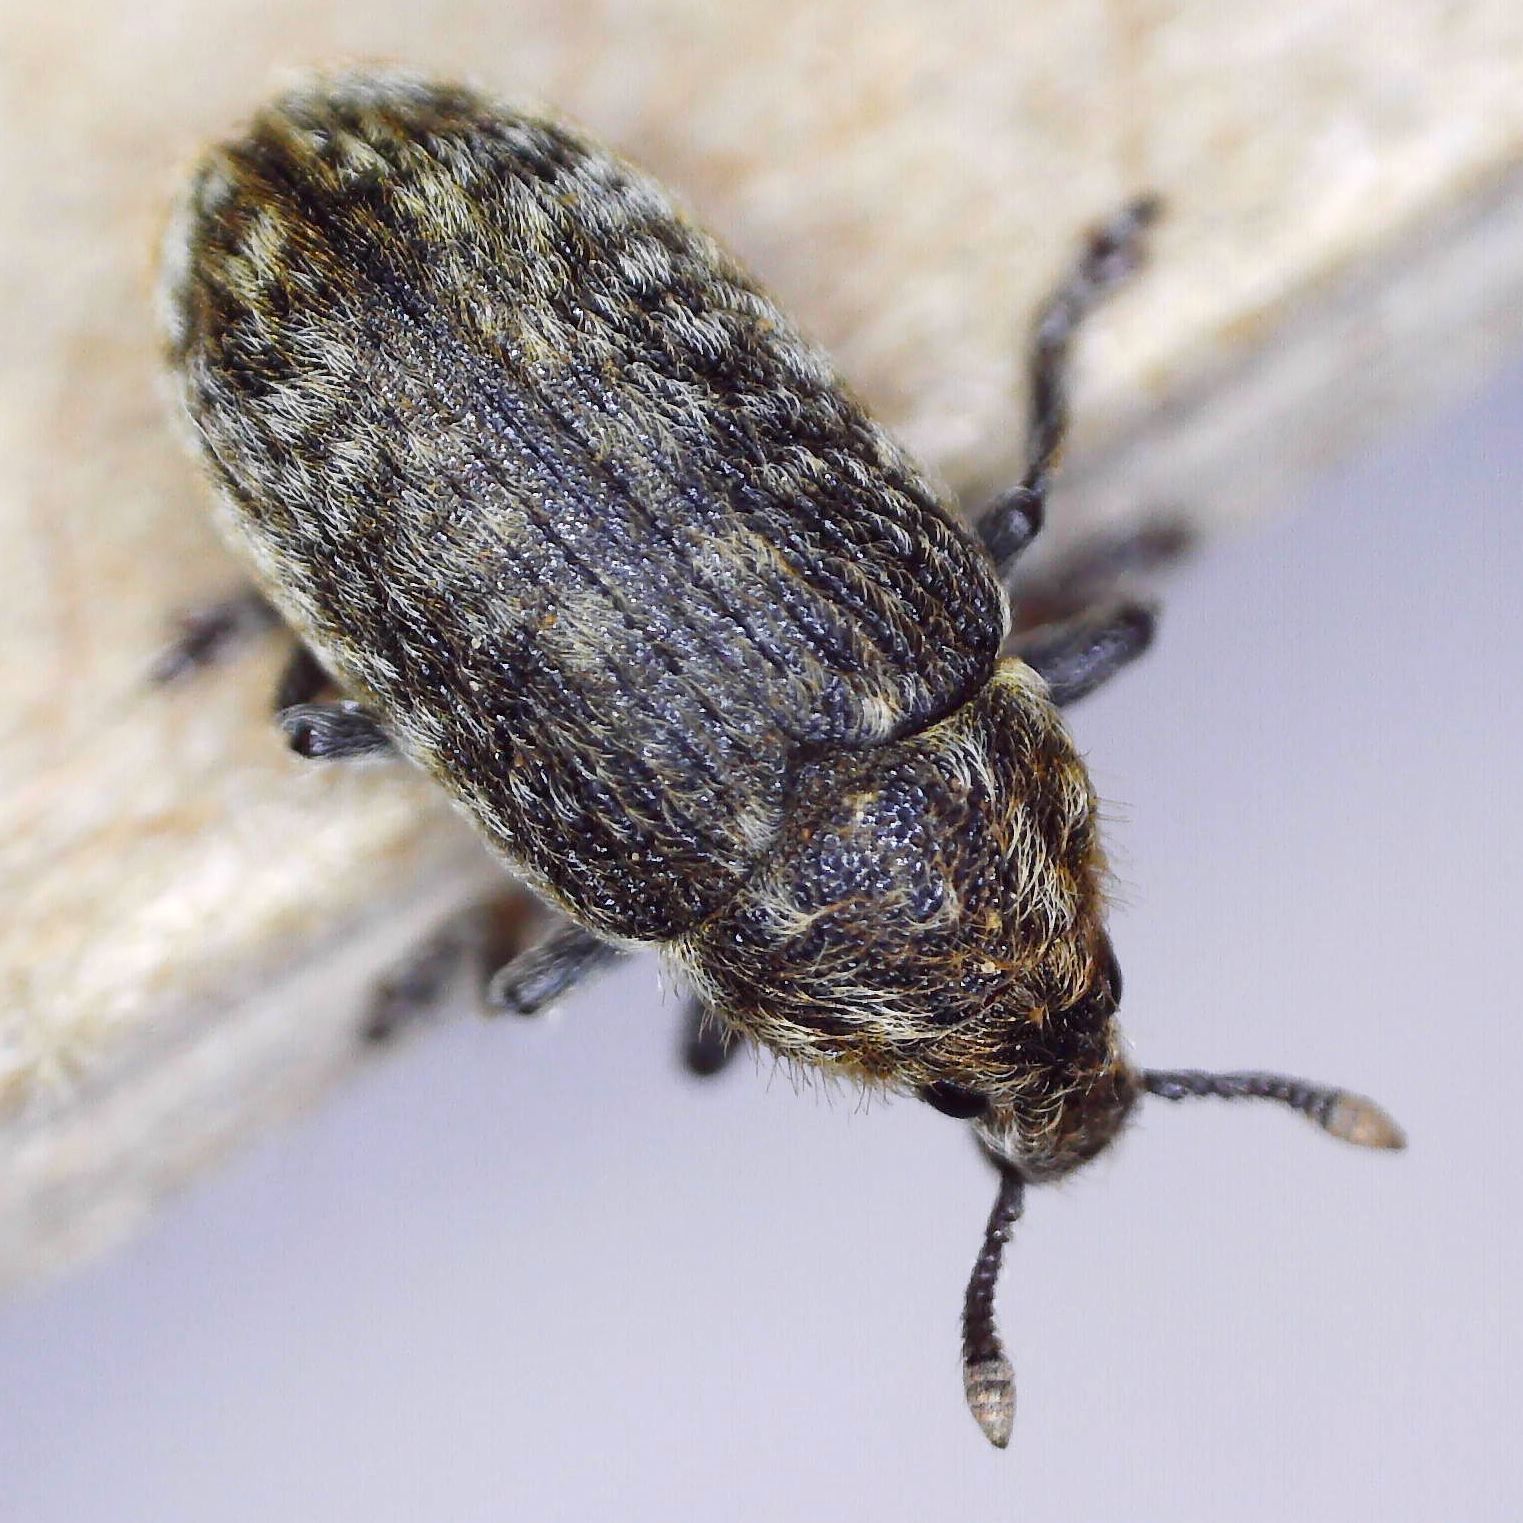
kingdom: Animalia
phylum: Arthropoda
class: Insecta
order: Coleoptera
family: Curculionidae
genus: Rhinocyllus
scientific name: Rhinocyllus conicus
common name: Weevil
